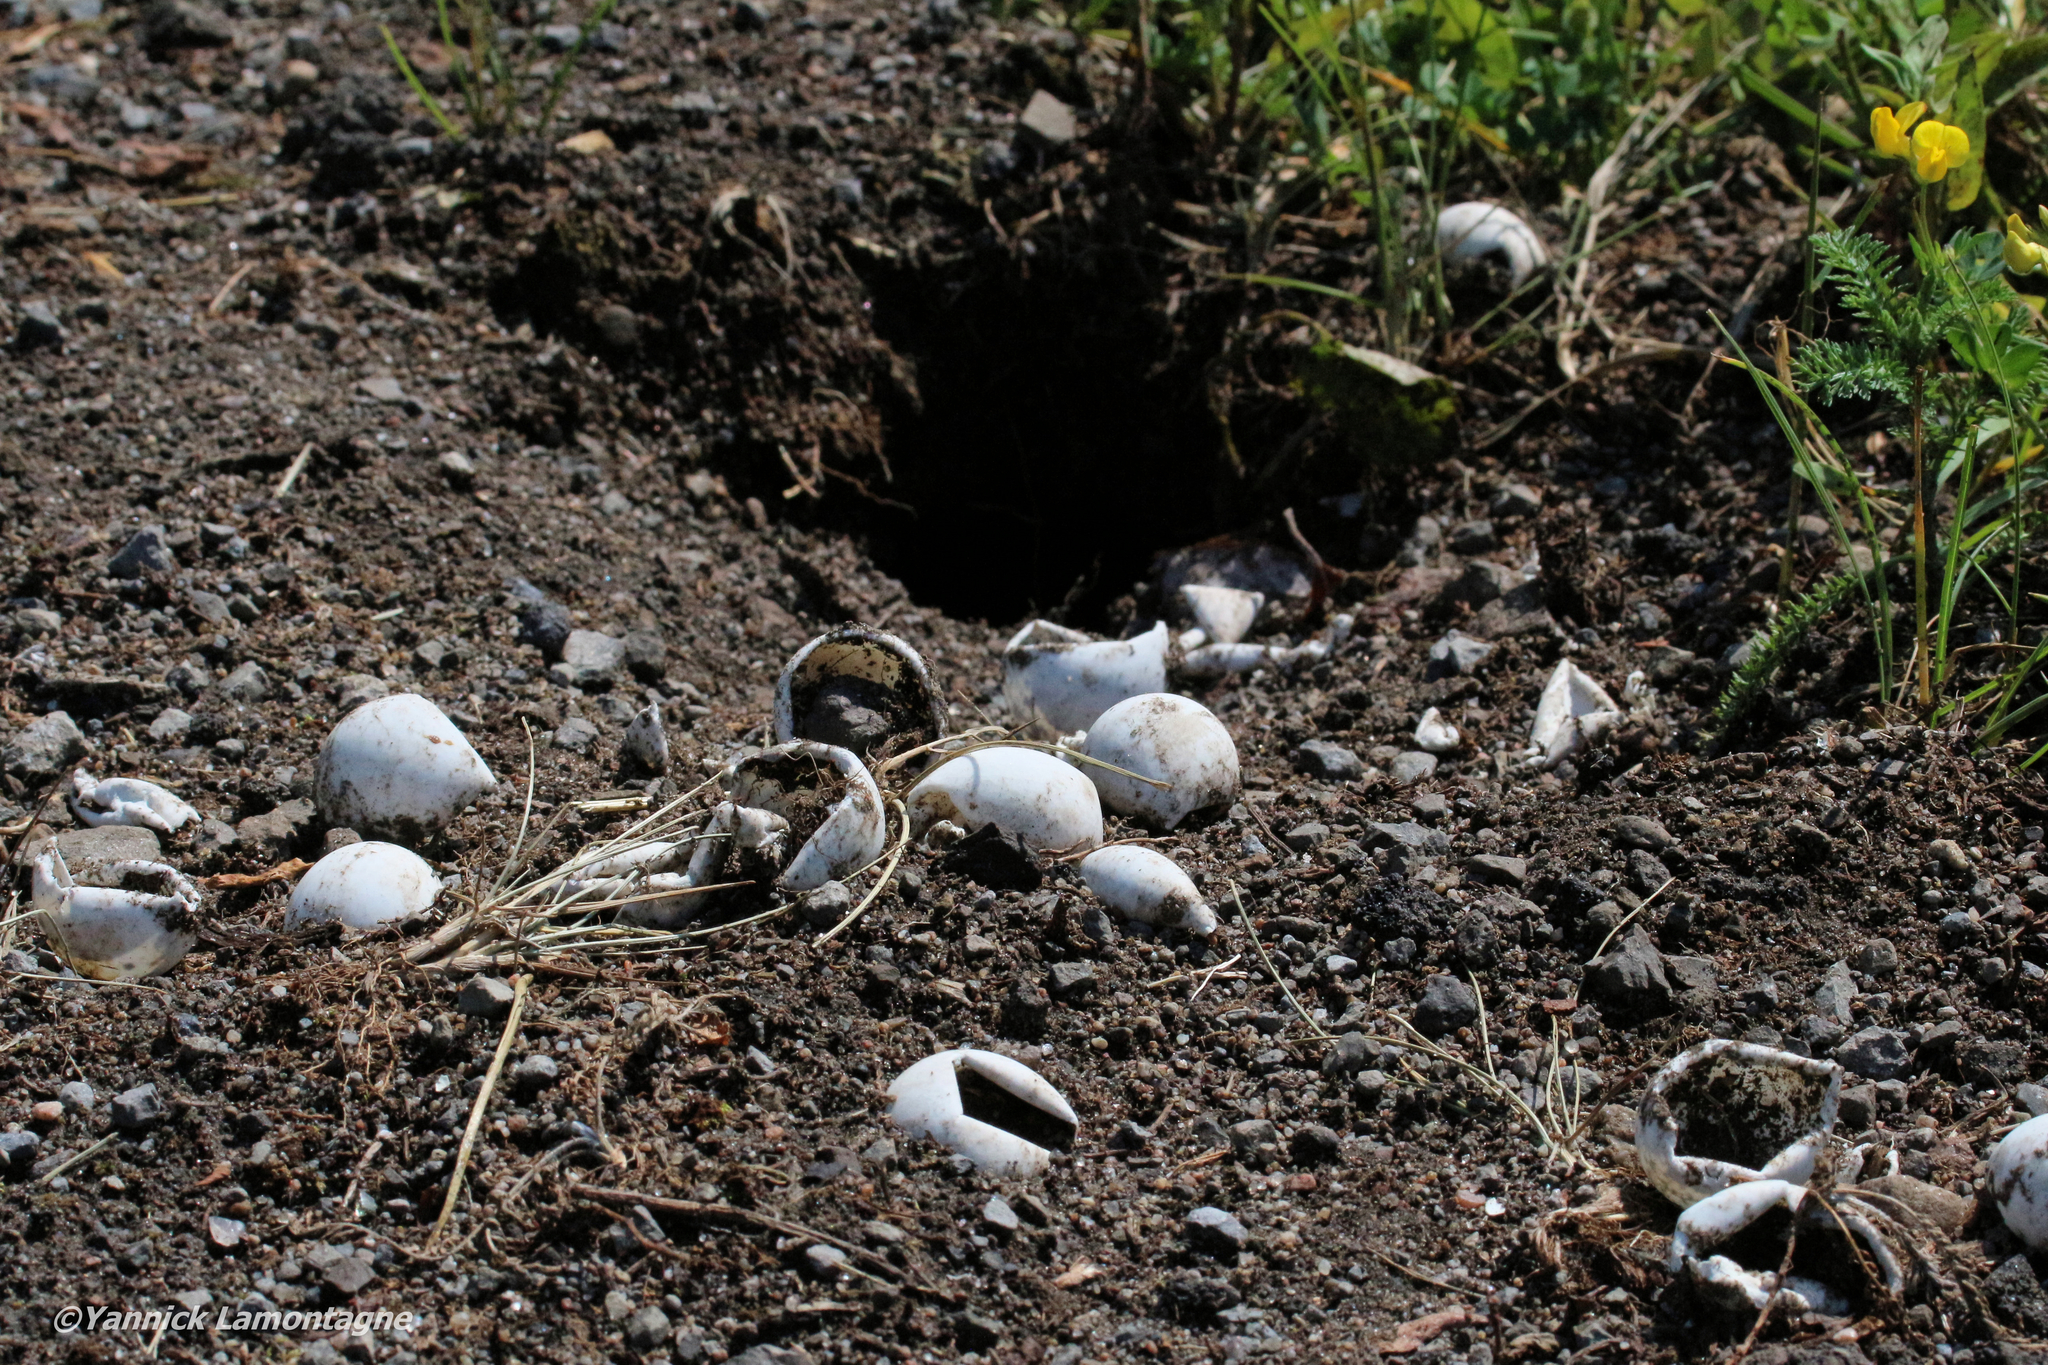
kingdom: Animalia
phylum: Chordata
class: Testudines
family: Chelydridae
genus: Chelydra
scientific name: Chelydra serpentina
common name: Common snapping turtle
